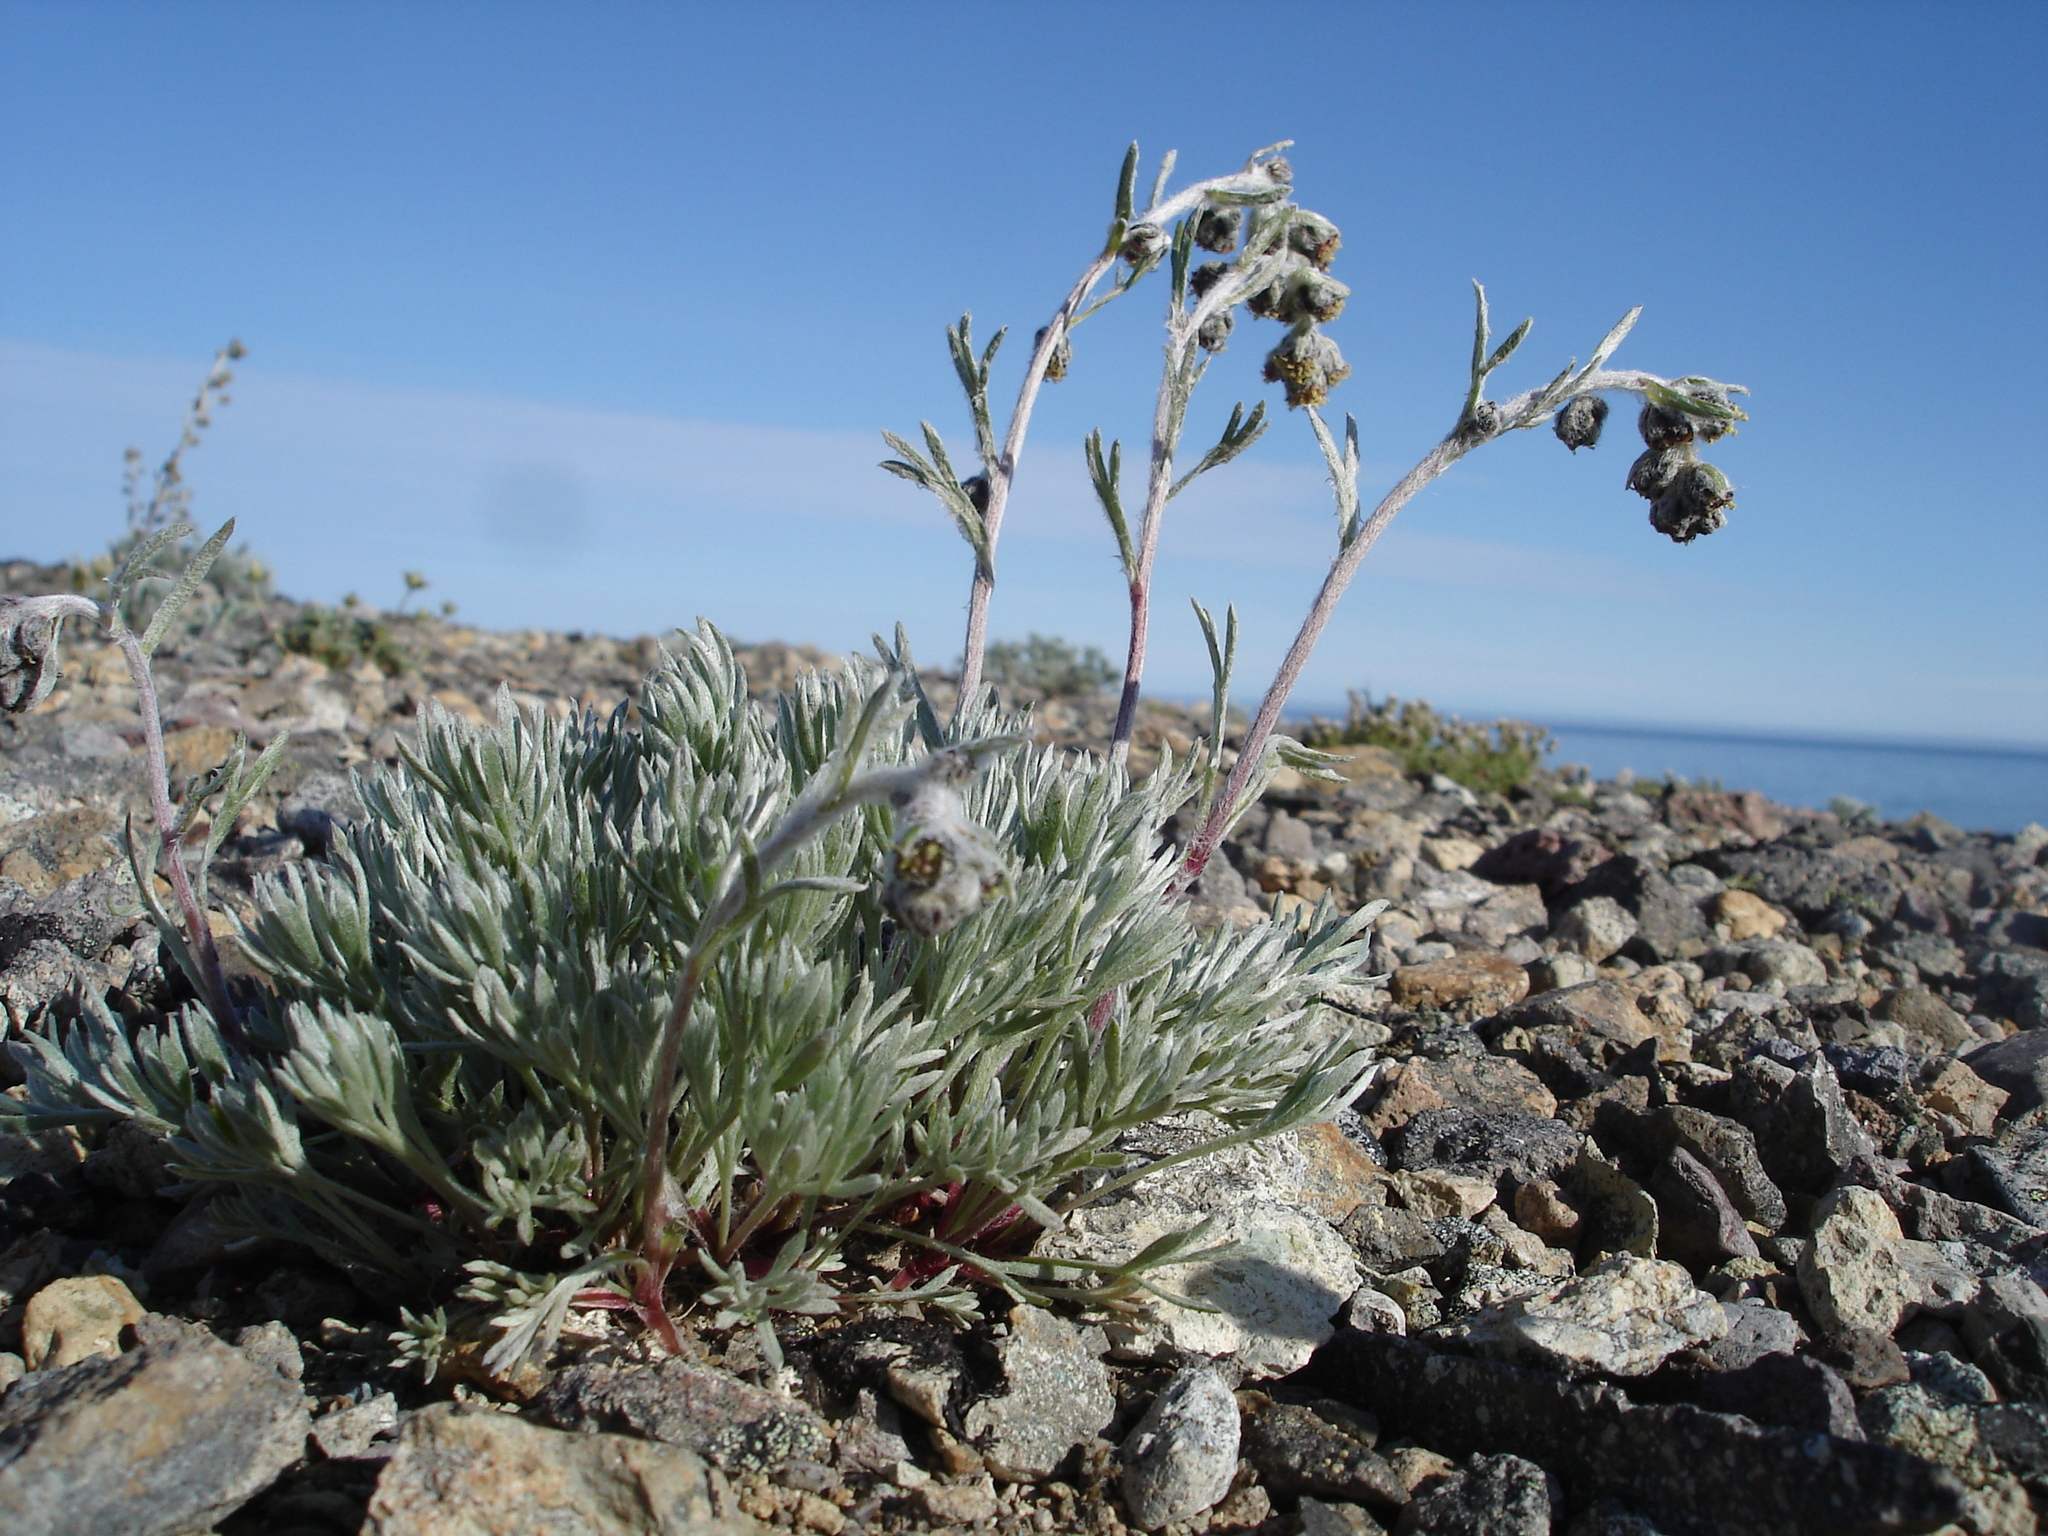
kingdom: Plantae
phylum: Tracheophyta
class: Magnoliopsida
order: Asterales
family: Asteraceae
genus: Artemisia
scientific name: Artemisia borealis
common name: Boreal sage
